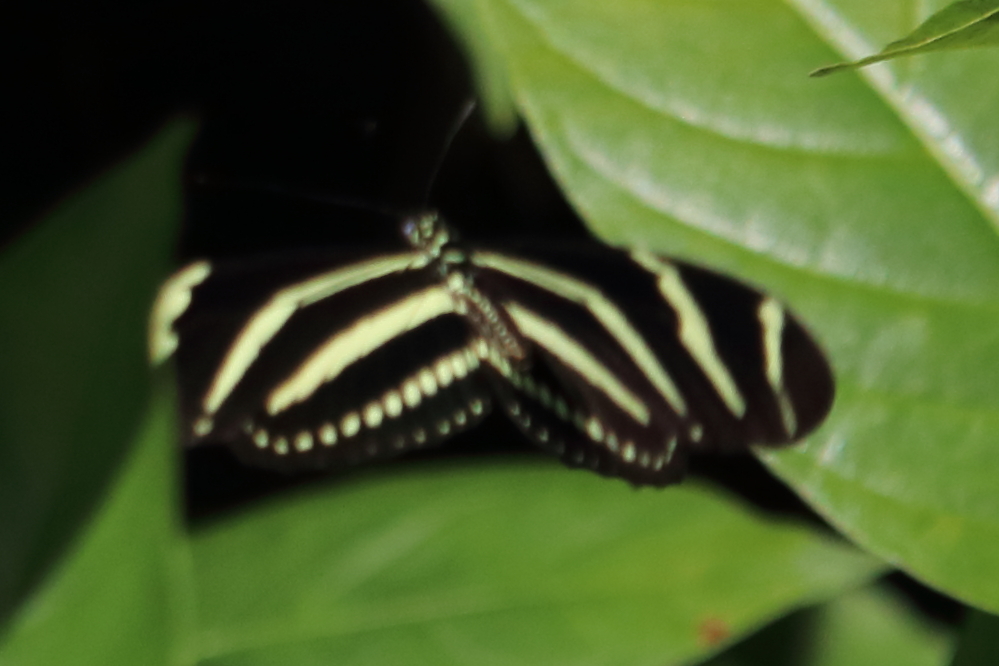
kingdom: Animalia
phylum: Arthropoda
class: Insecta
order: Lepidoptera
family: Nymphalidae
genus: Heliconius
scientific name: Heliconius charithonia
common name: Zebra long wing
